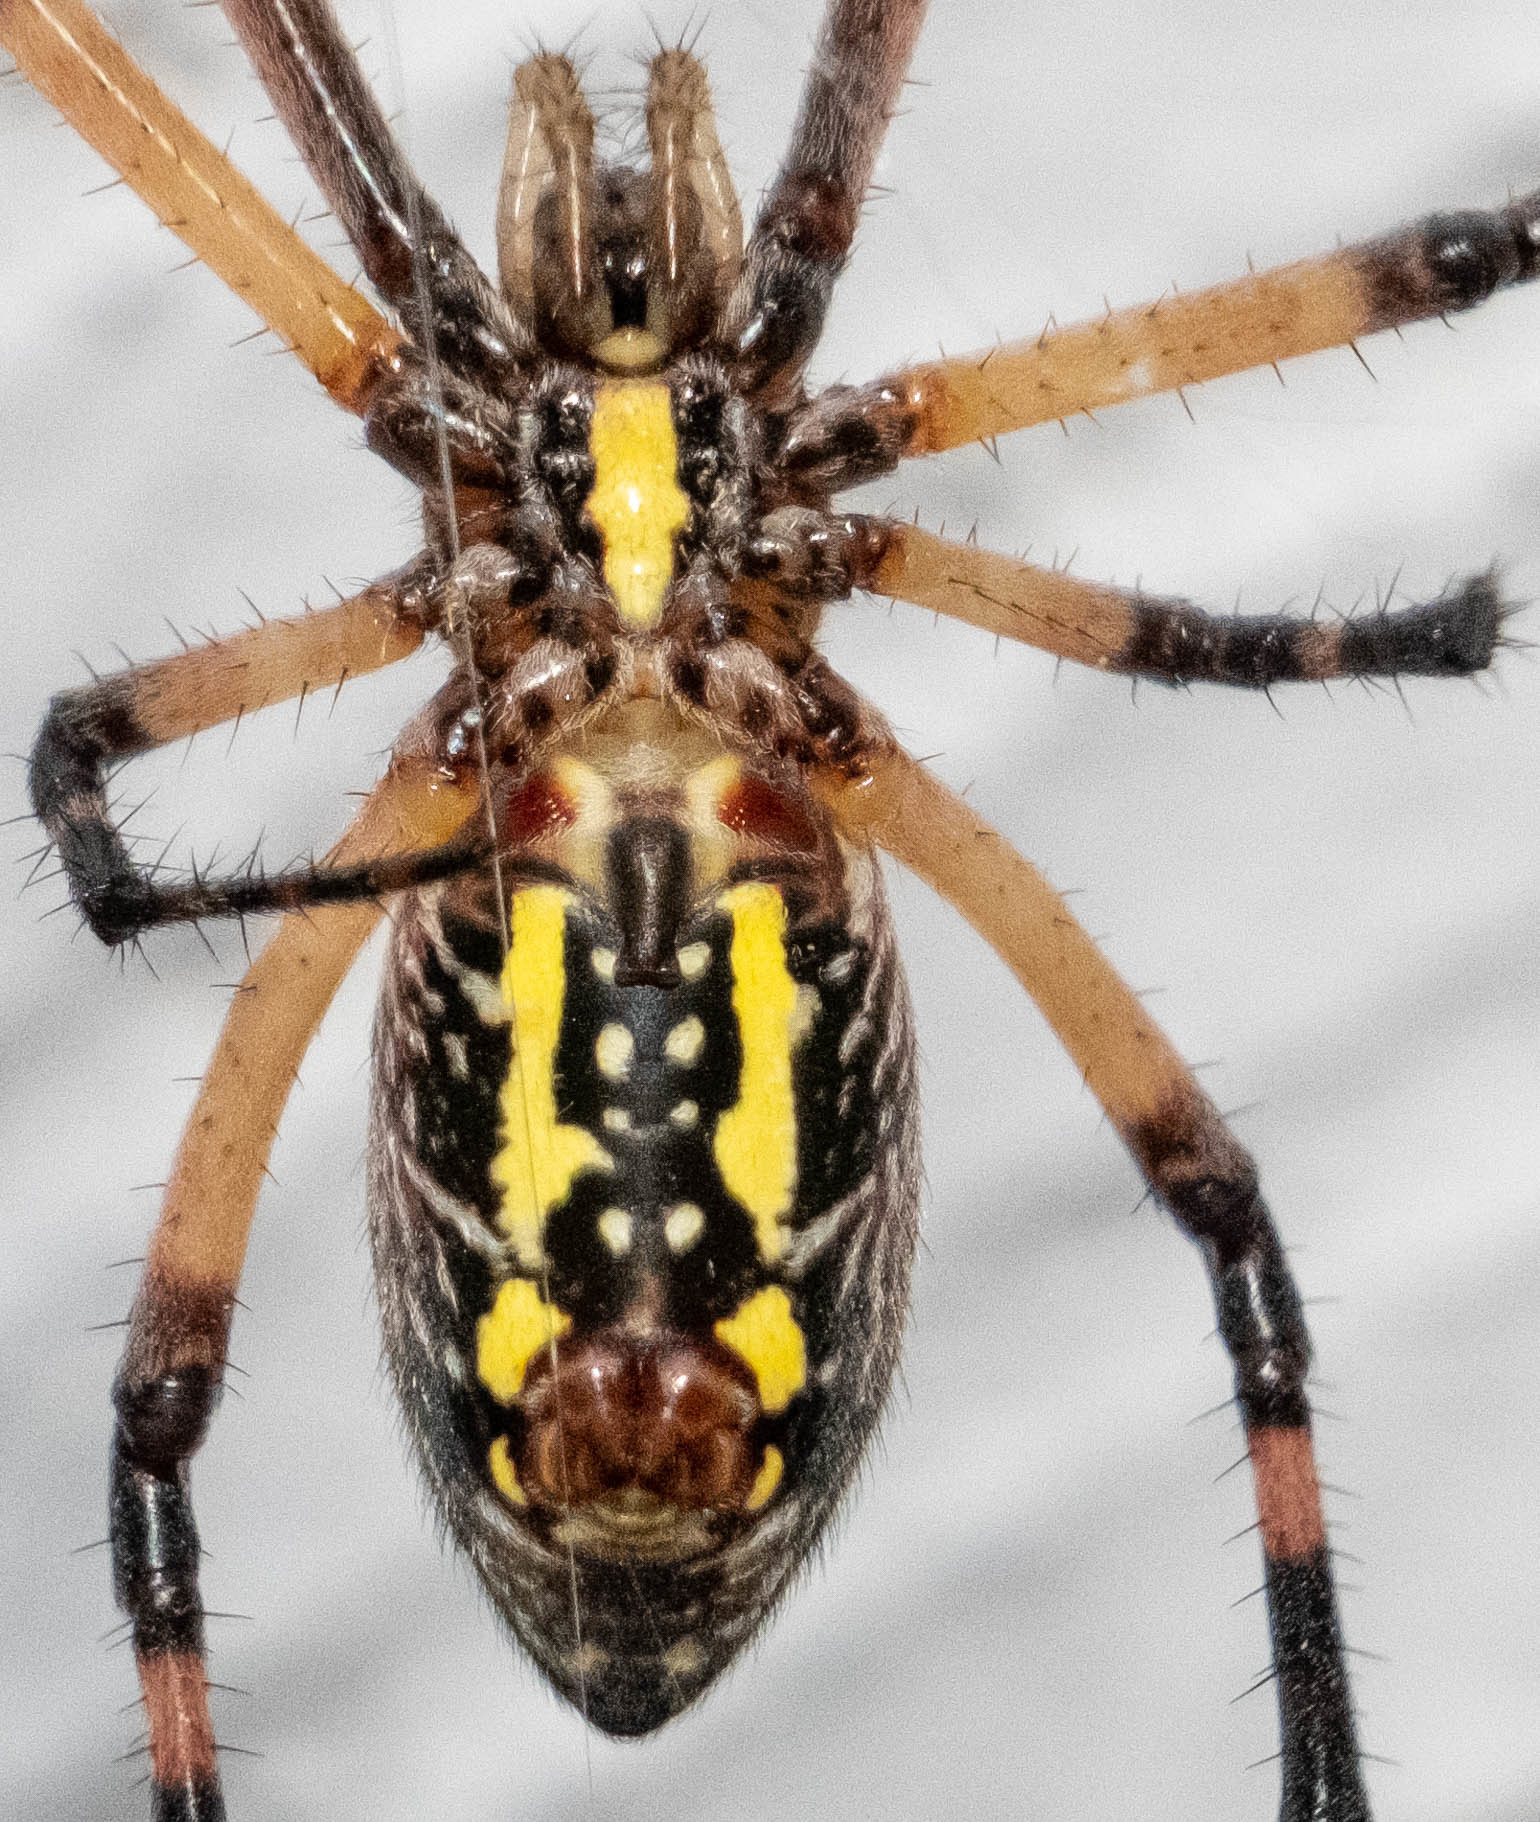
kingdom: Animalia
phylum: Arthropoda
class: Arachnida
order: Araneae
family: Araneidae
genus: Argiope
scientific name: Argiope aurantia
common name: Orb weavers
